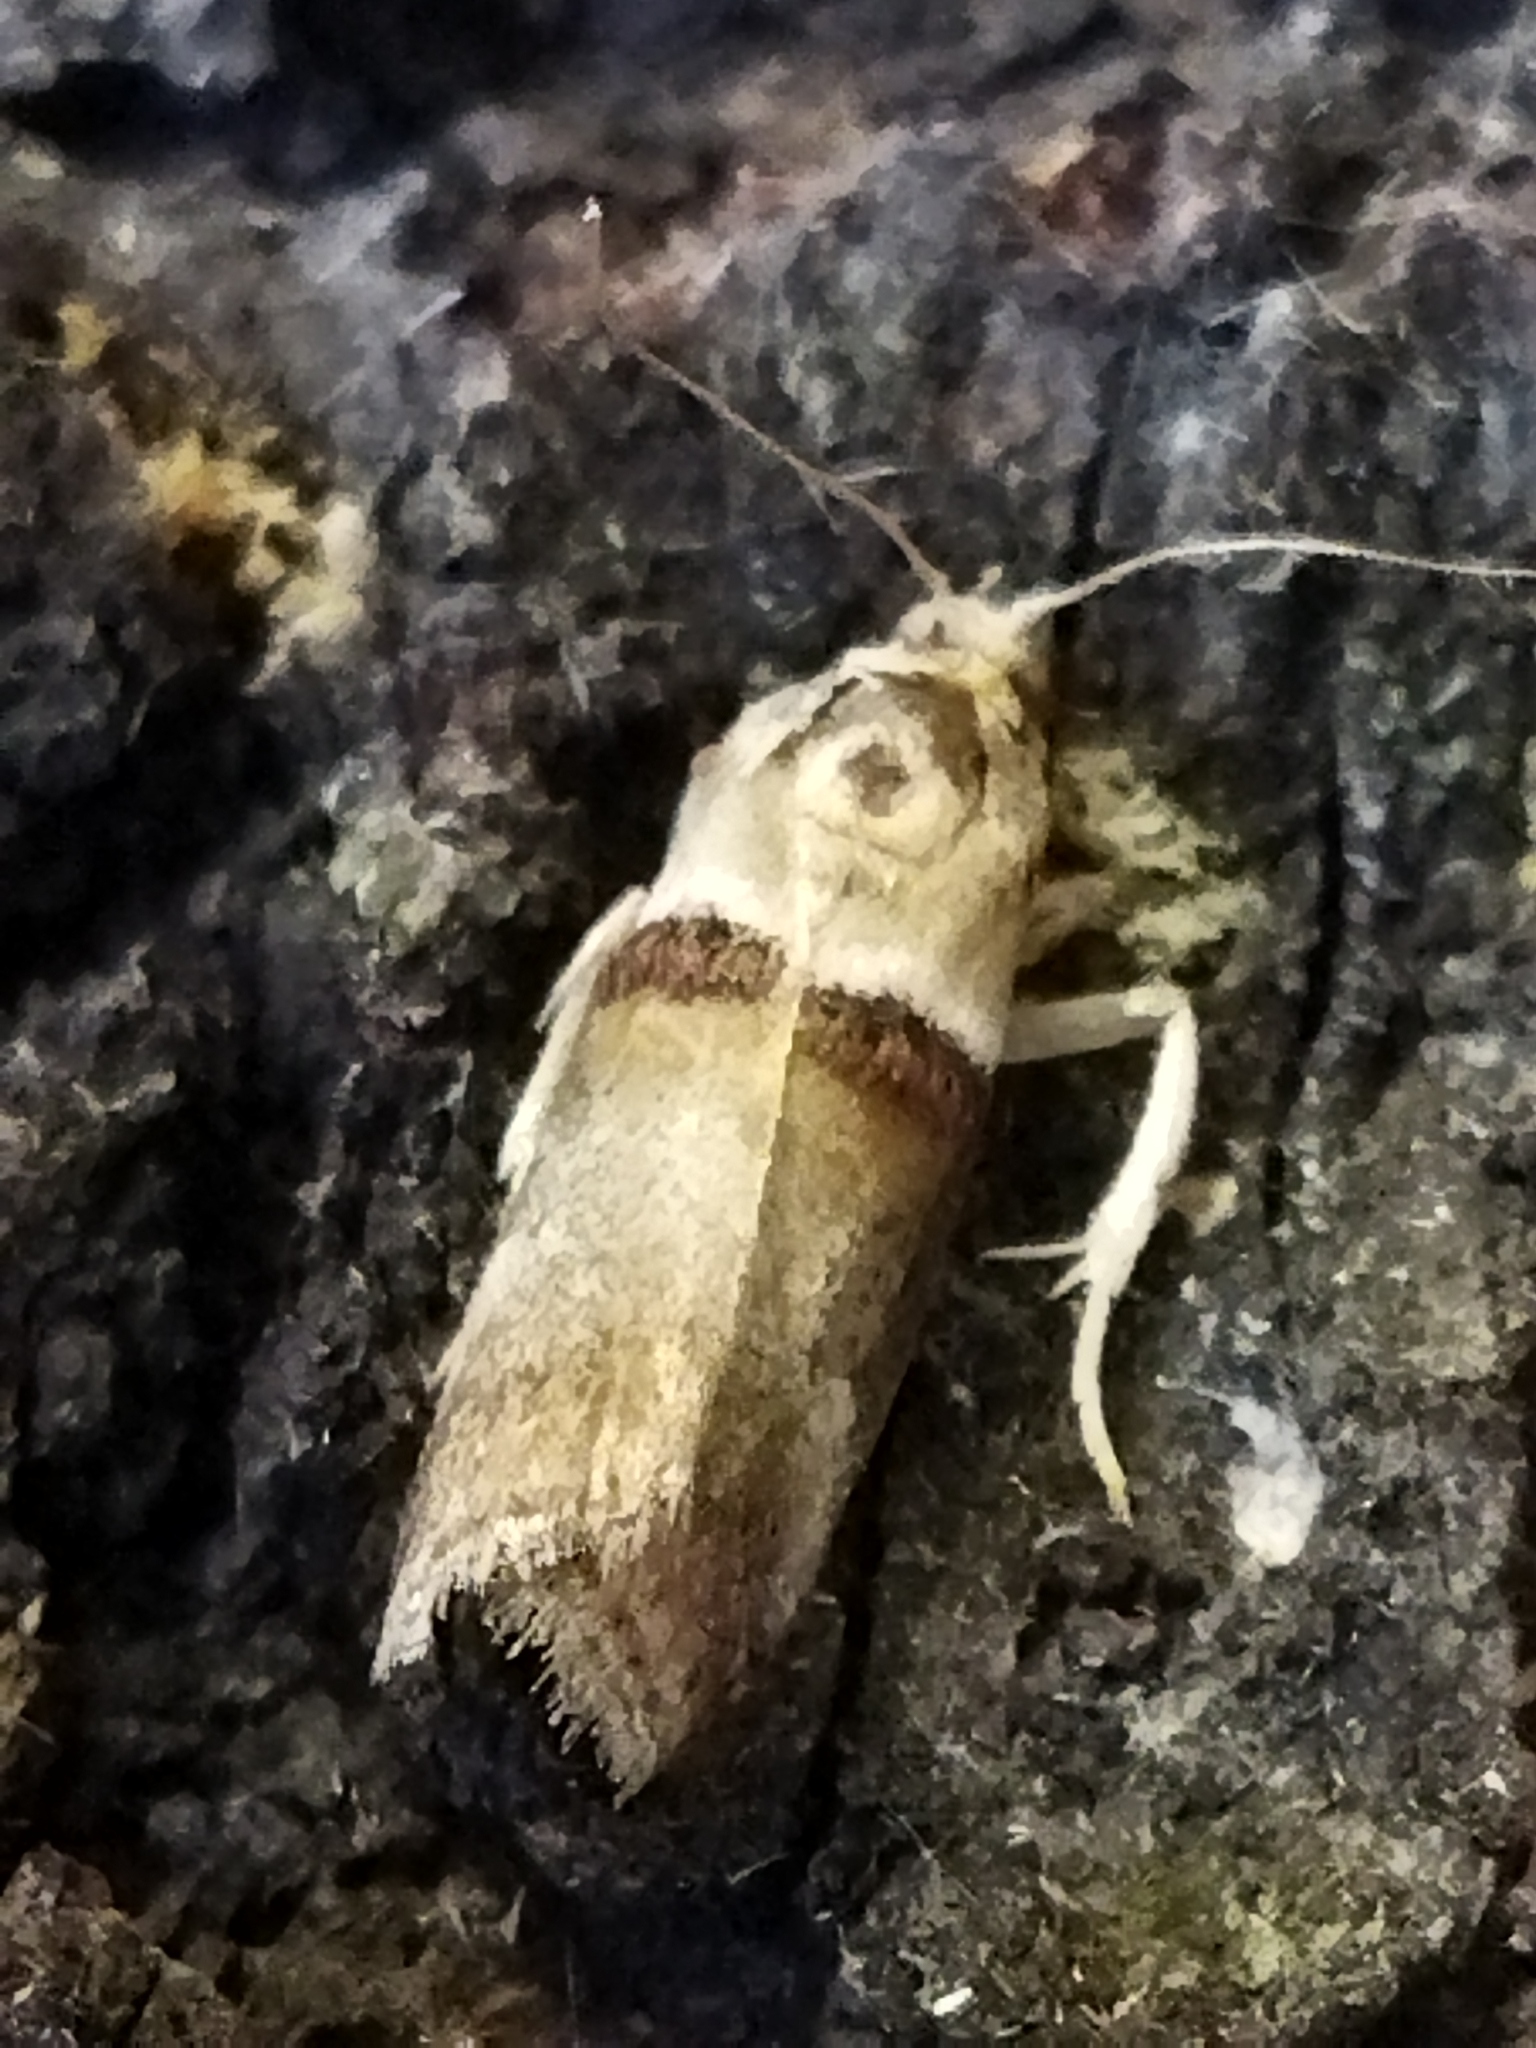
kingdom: Animalia
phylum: Arthropoda
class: Insecta
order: Lepidoptera
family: Pyralidae
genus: Acrobasis
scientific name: Acrobasis tumidana
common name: Scarce oak knot-horn
